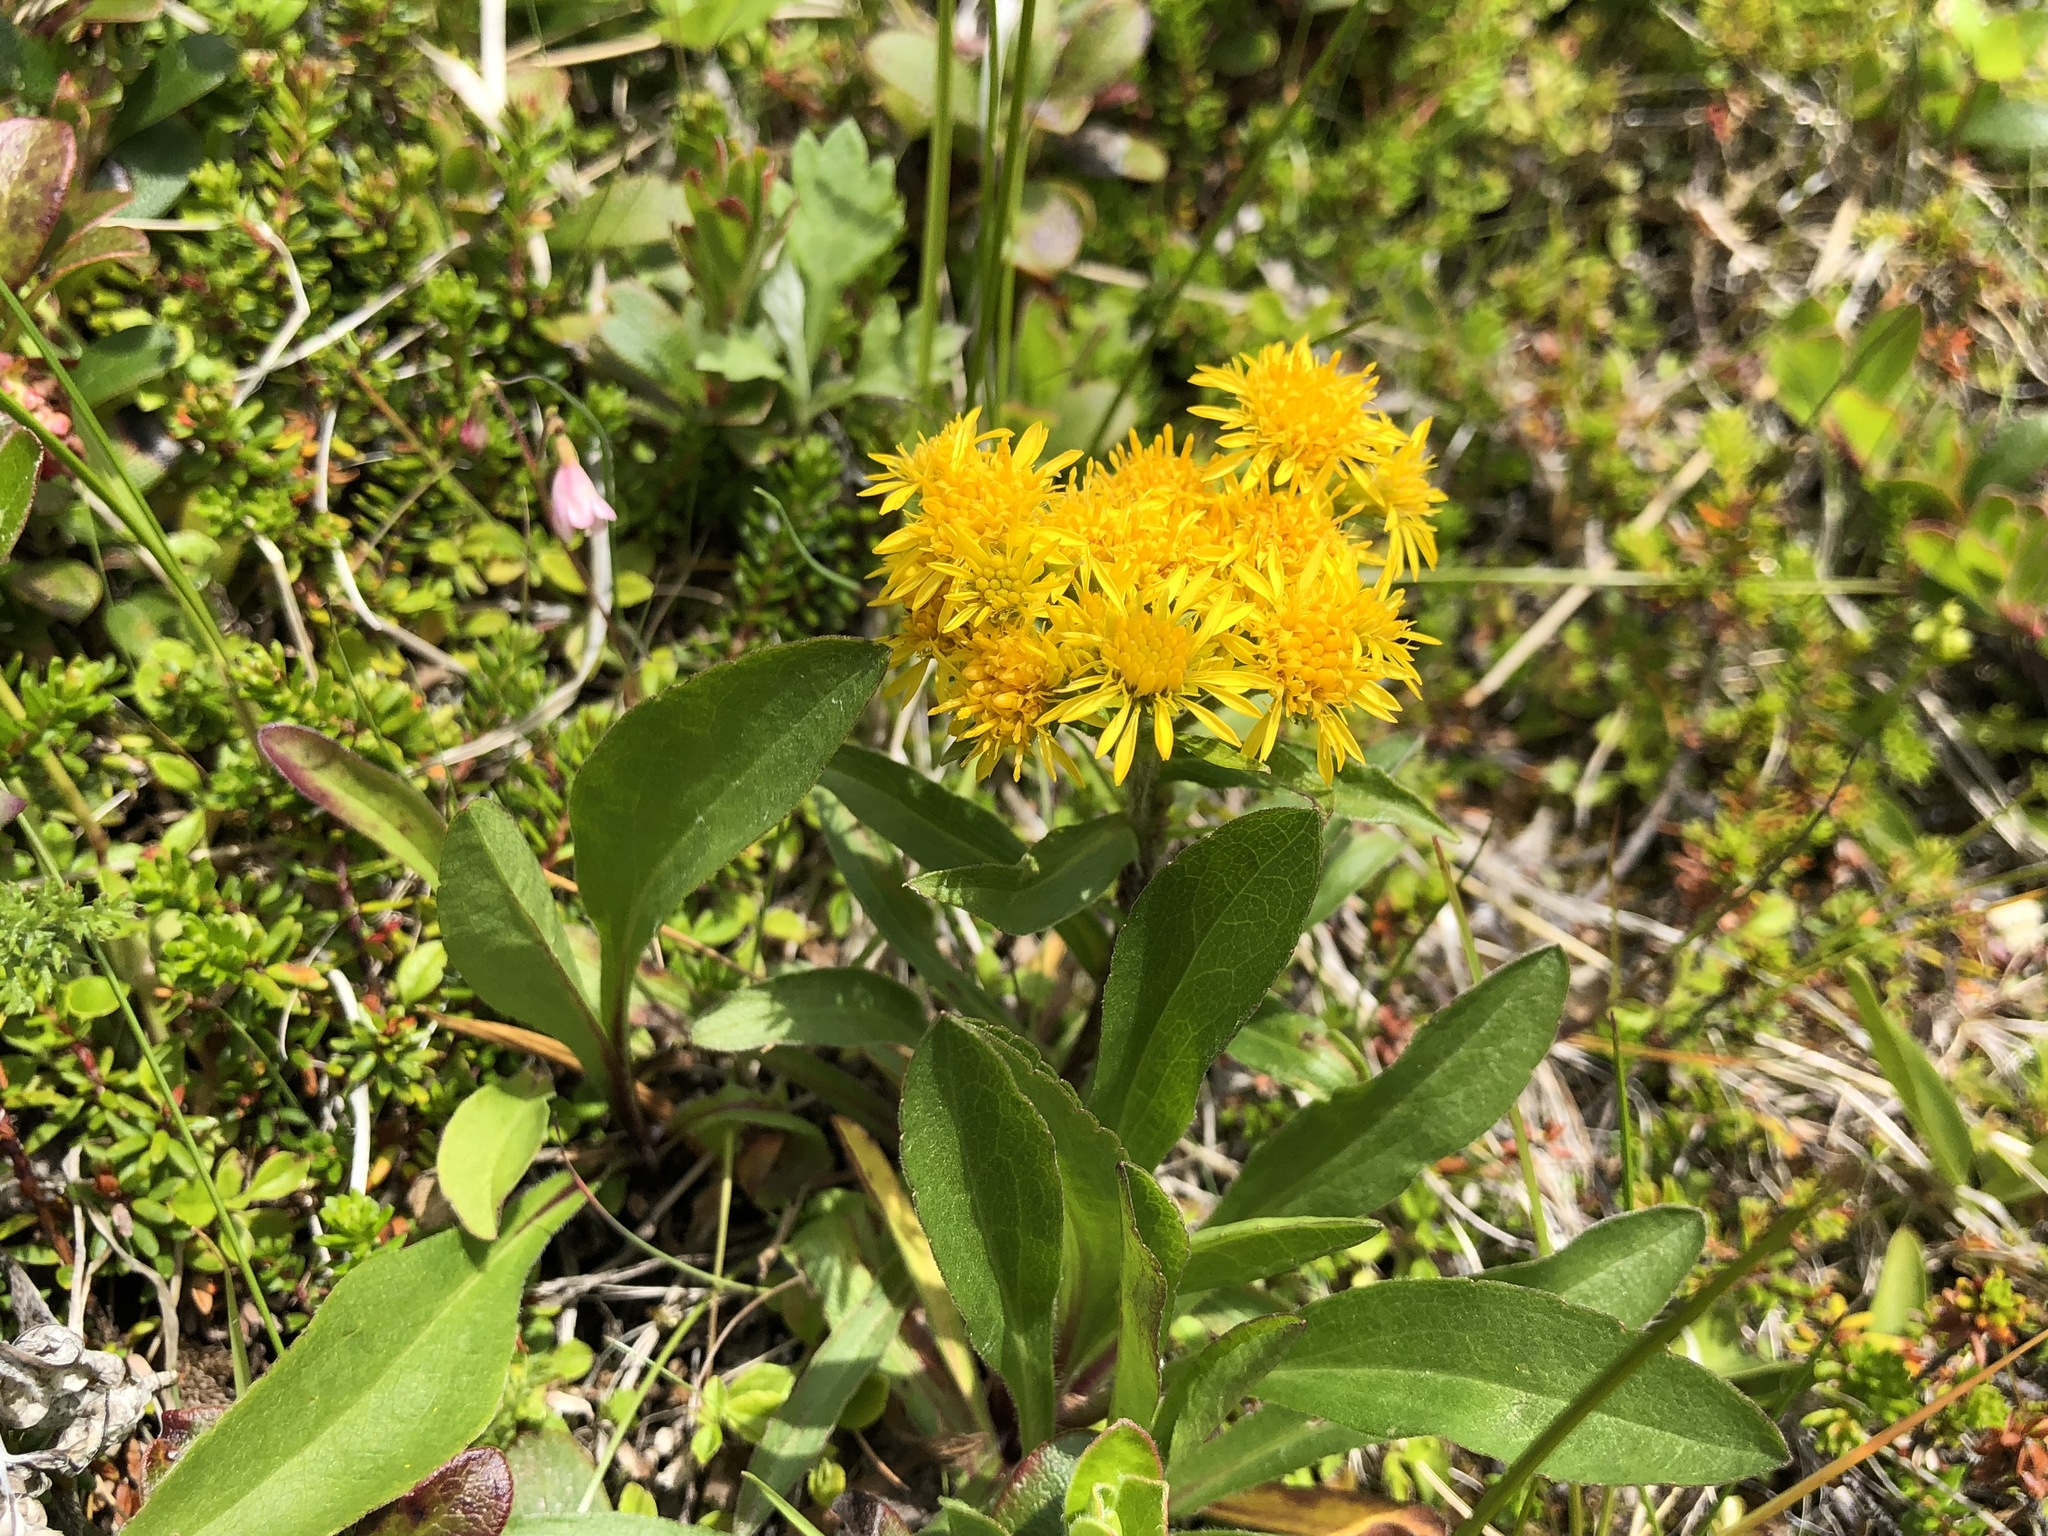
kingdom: Plantae
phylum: Tracheophyta
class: Magnoliopsida
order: Asterales
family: Asteraceae
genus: Solidago
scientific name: Solidago multiradiata
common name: Northern goldenrod
